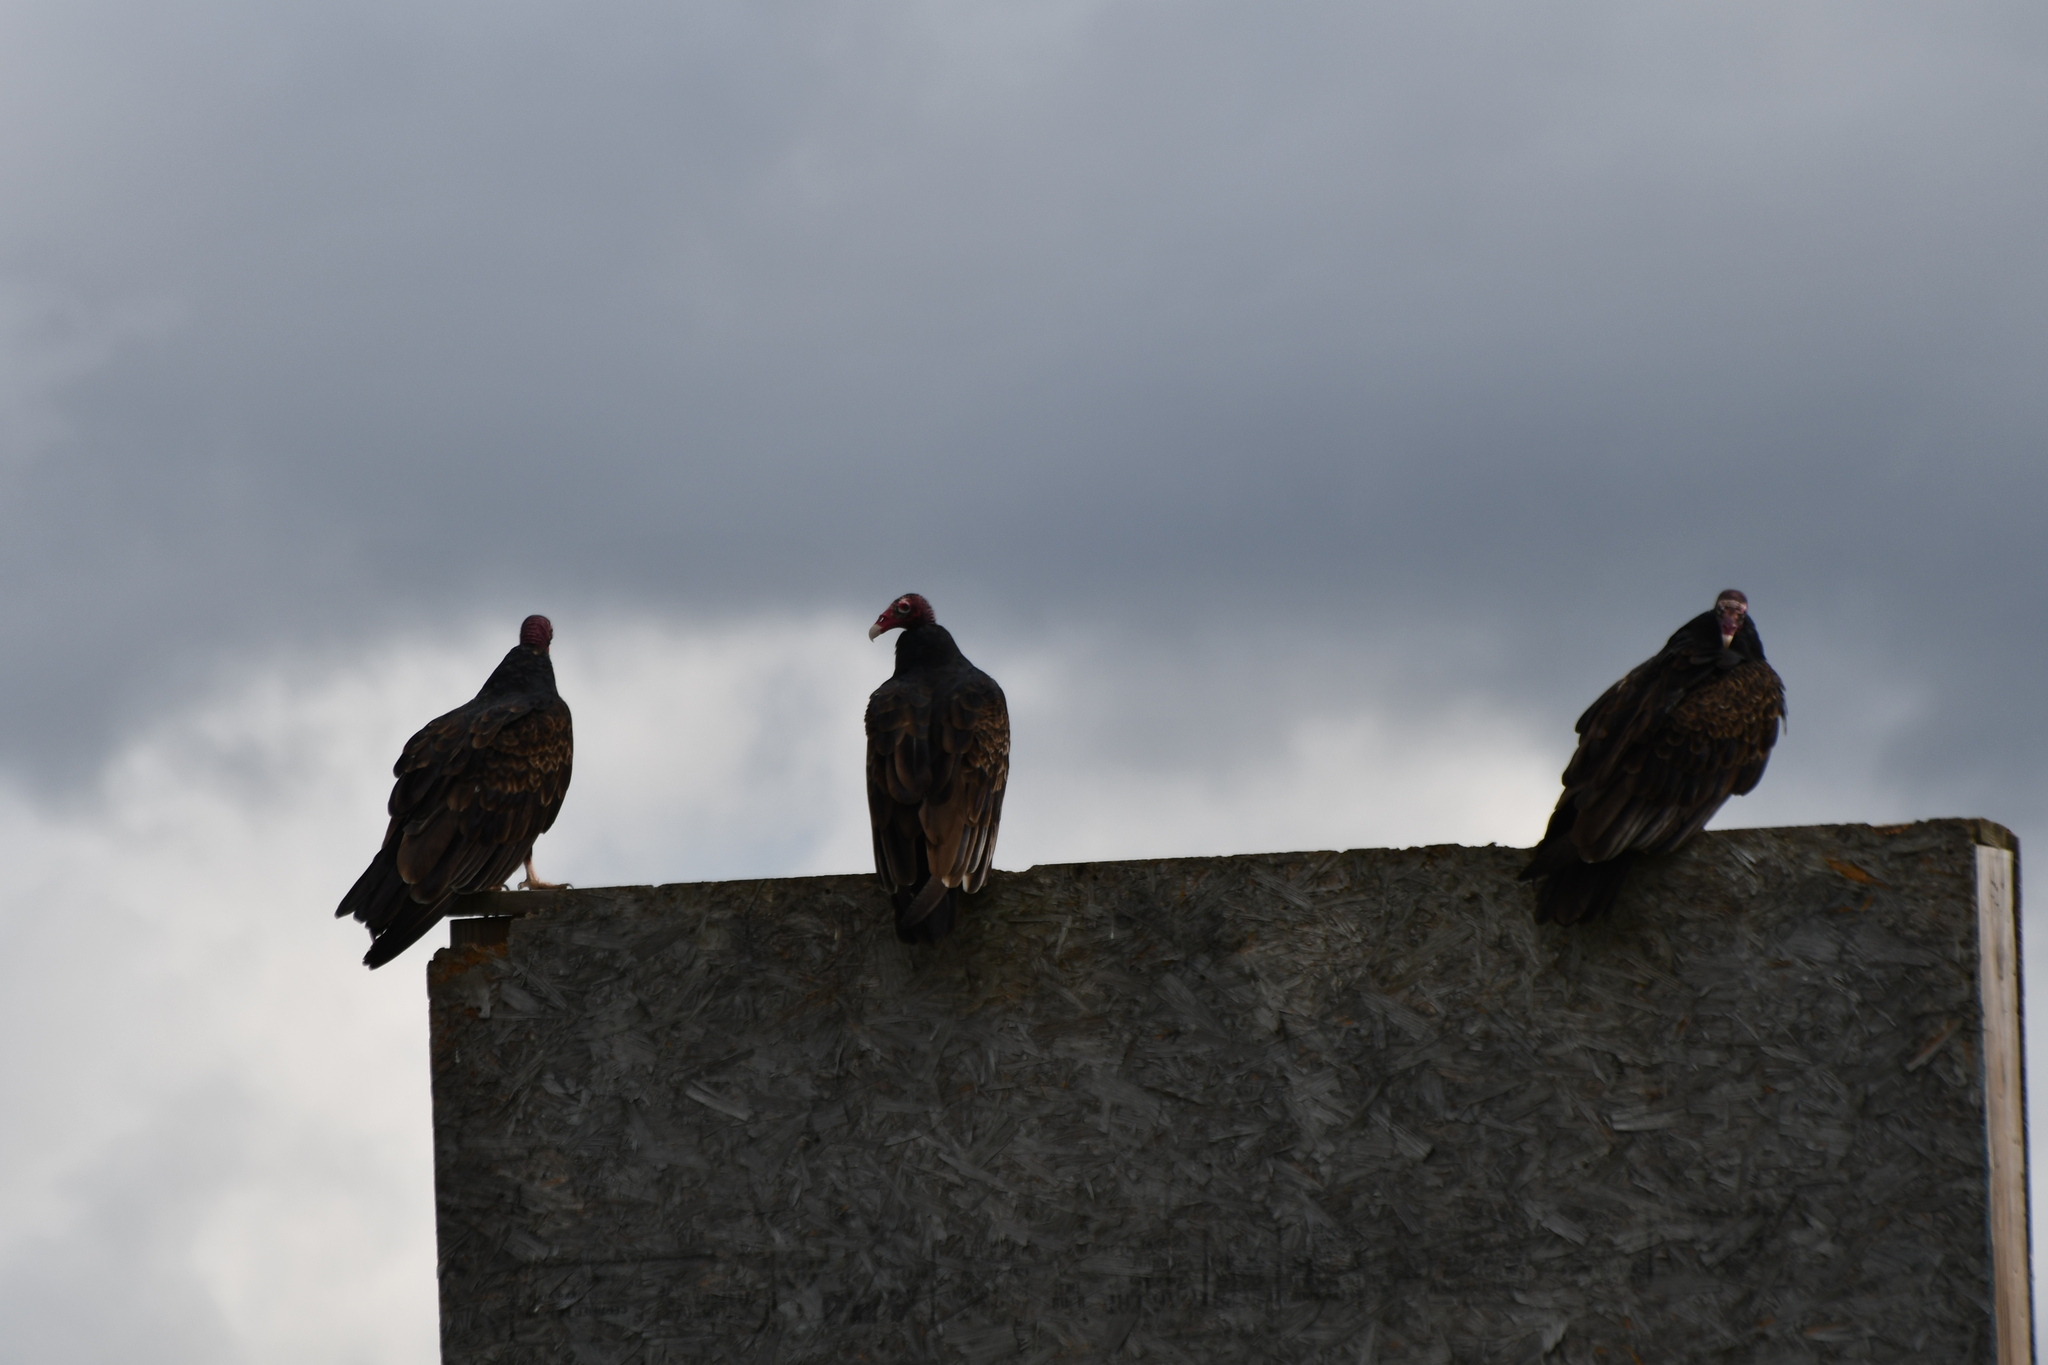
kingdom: Animalia
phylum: Chordata
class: Aves
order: Accipitriformes
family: Cathartidae
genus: Cathartes
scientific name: Cathartes aura
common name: Turkey vulture
